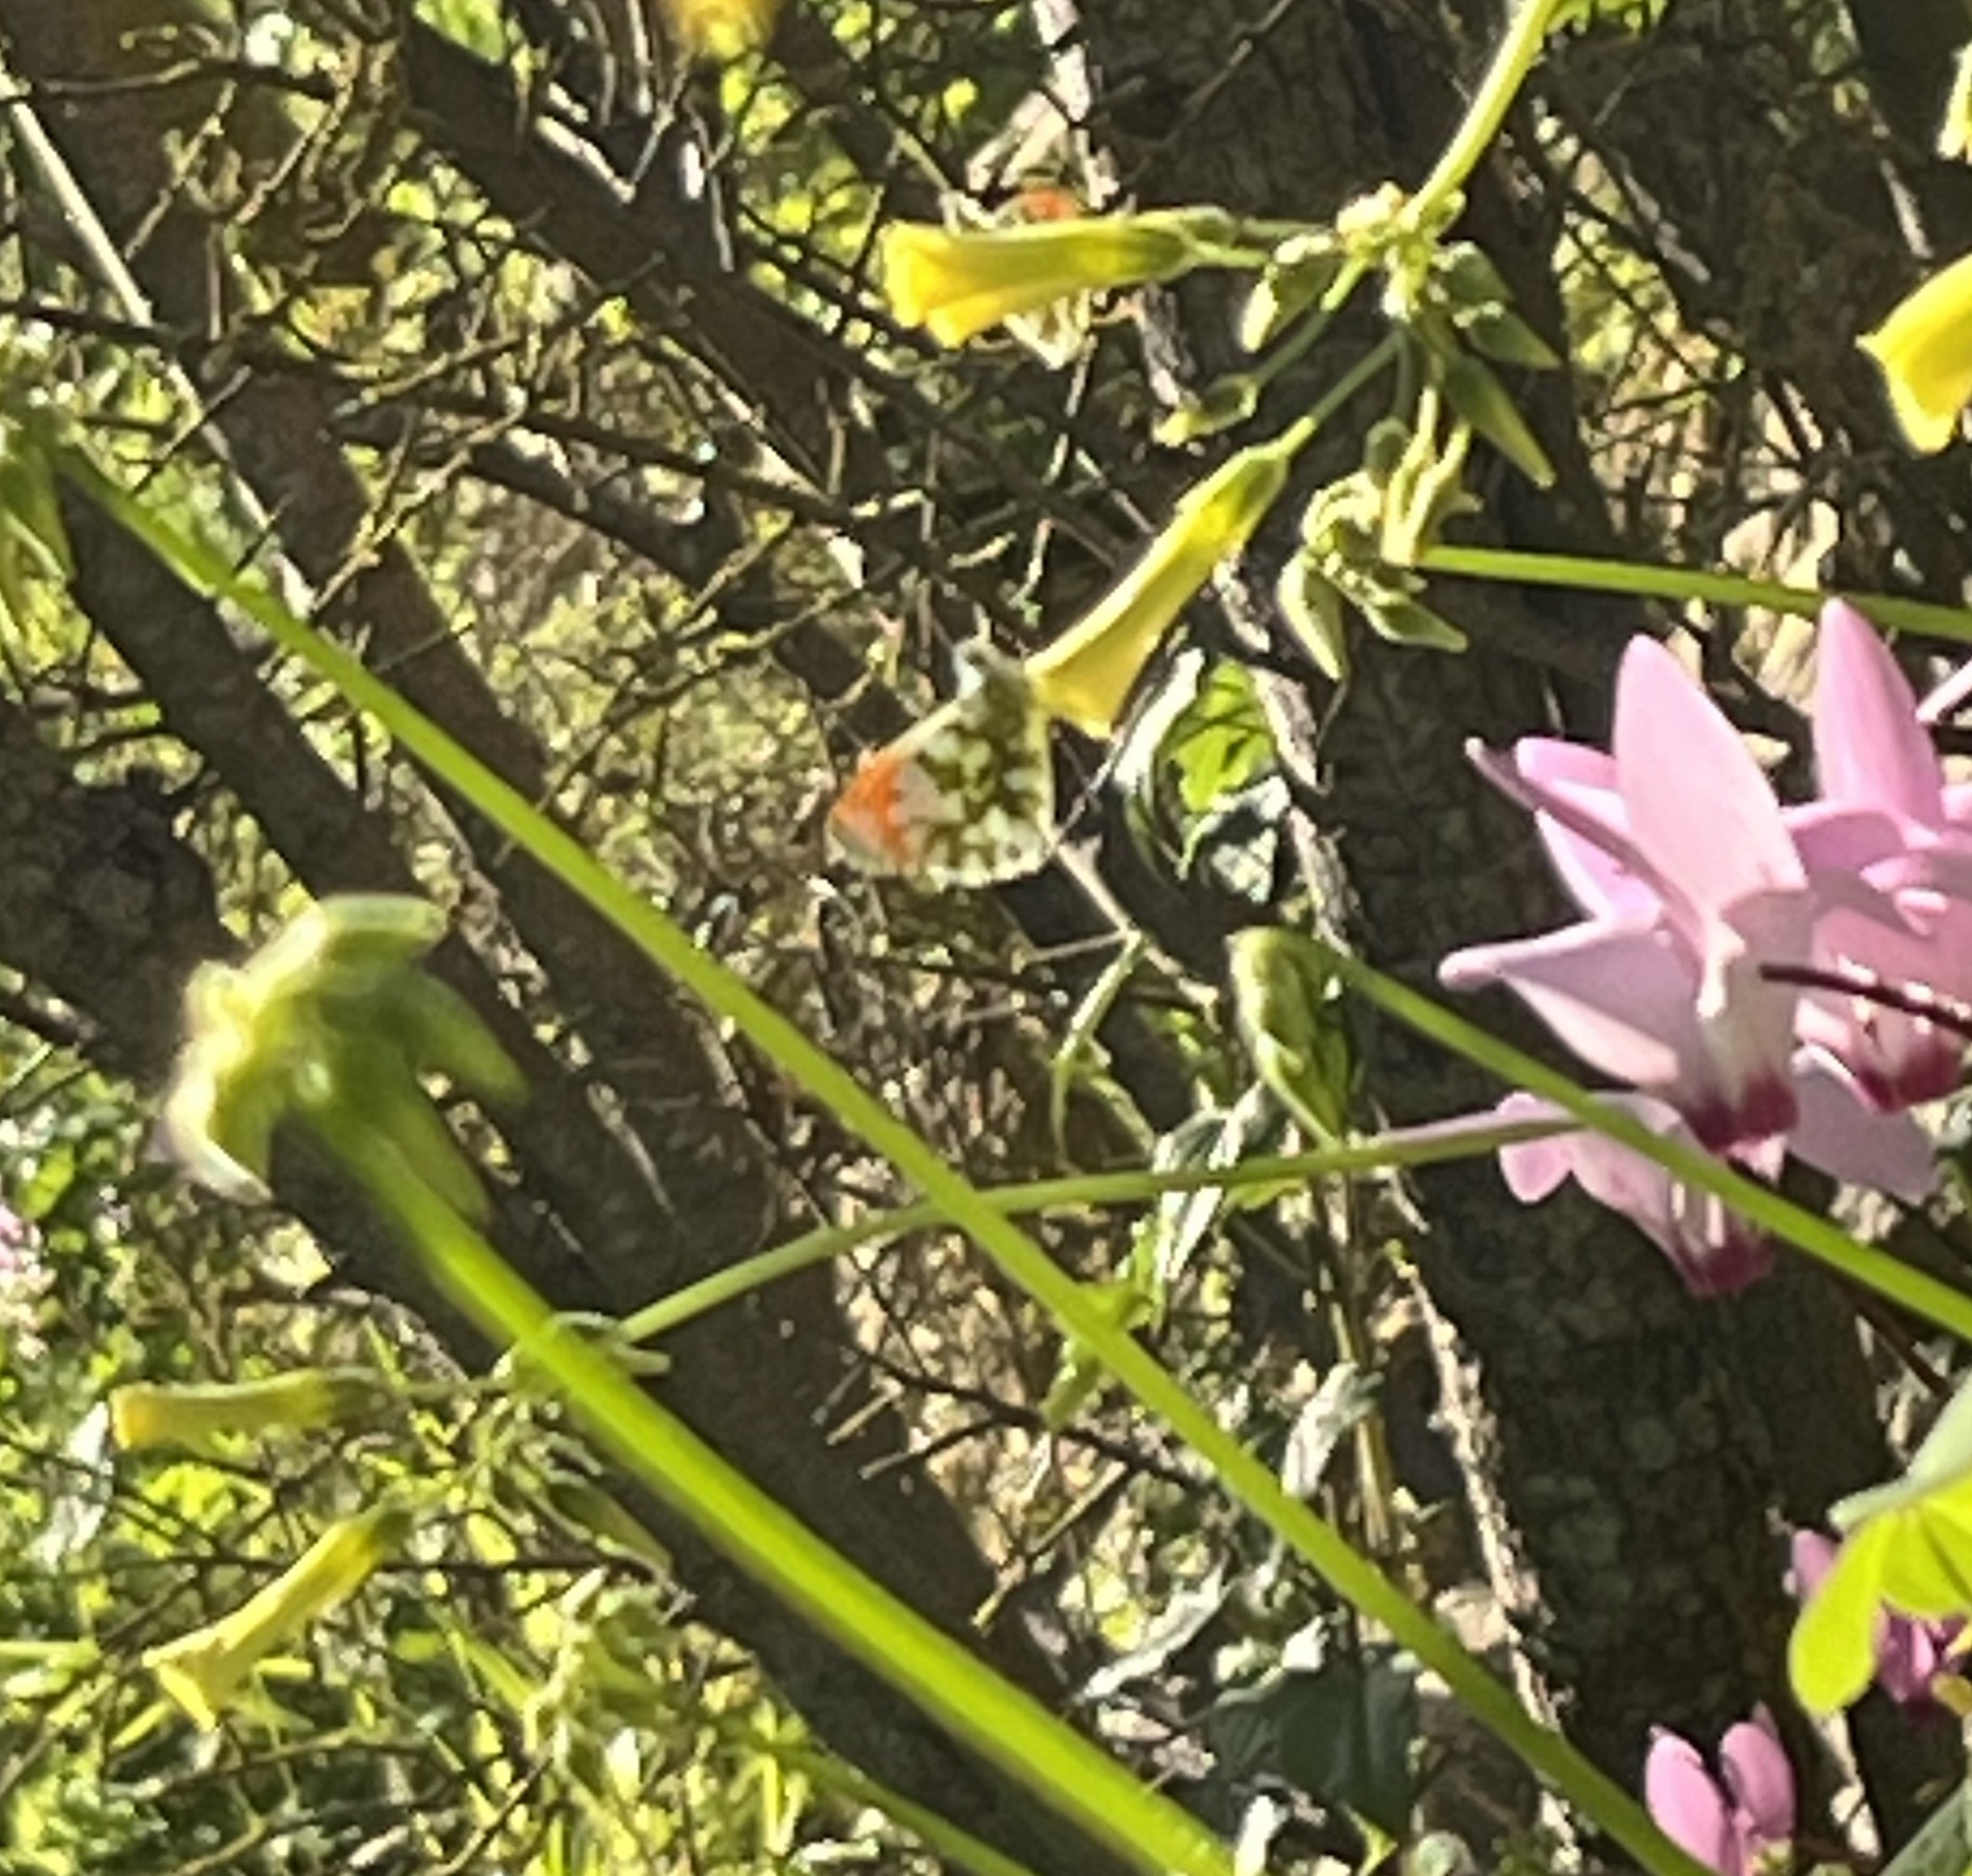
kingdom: Animalia
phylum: Arthropoda
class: Insecta
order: Lepidoptera
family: Pieridae
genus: Anthocharis
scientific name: Anthocharis cardamines
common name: Orange-tip
